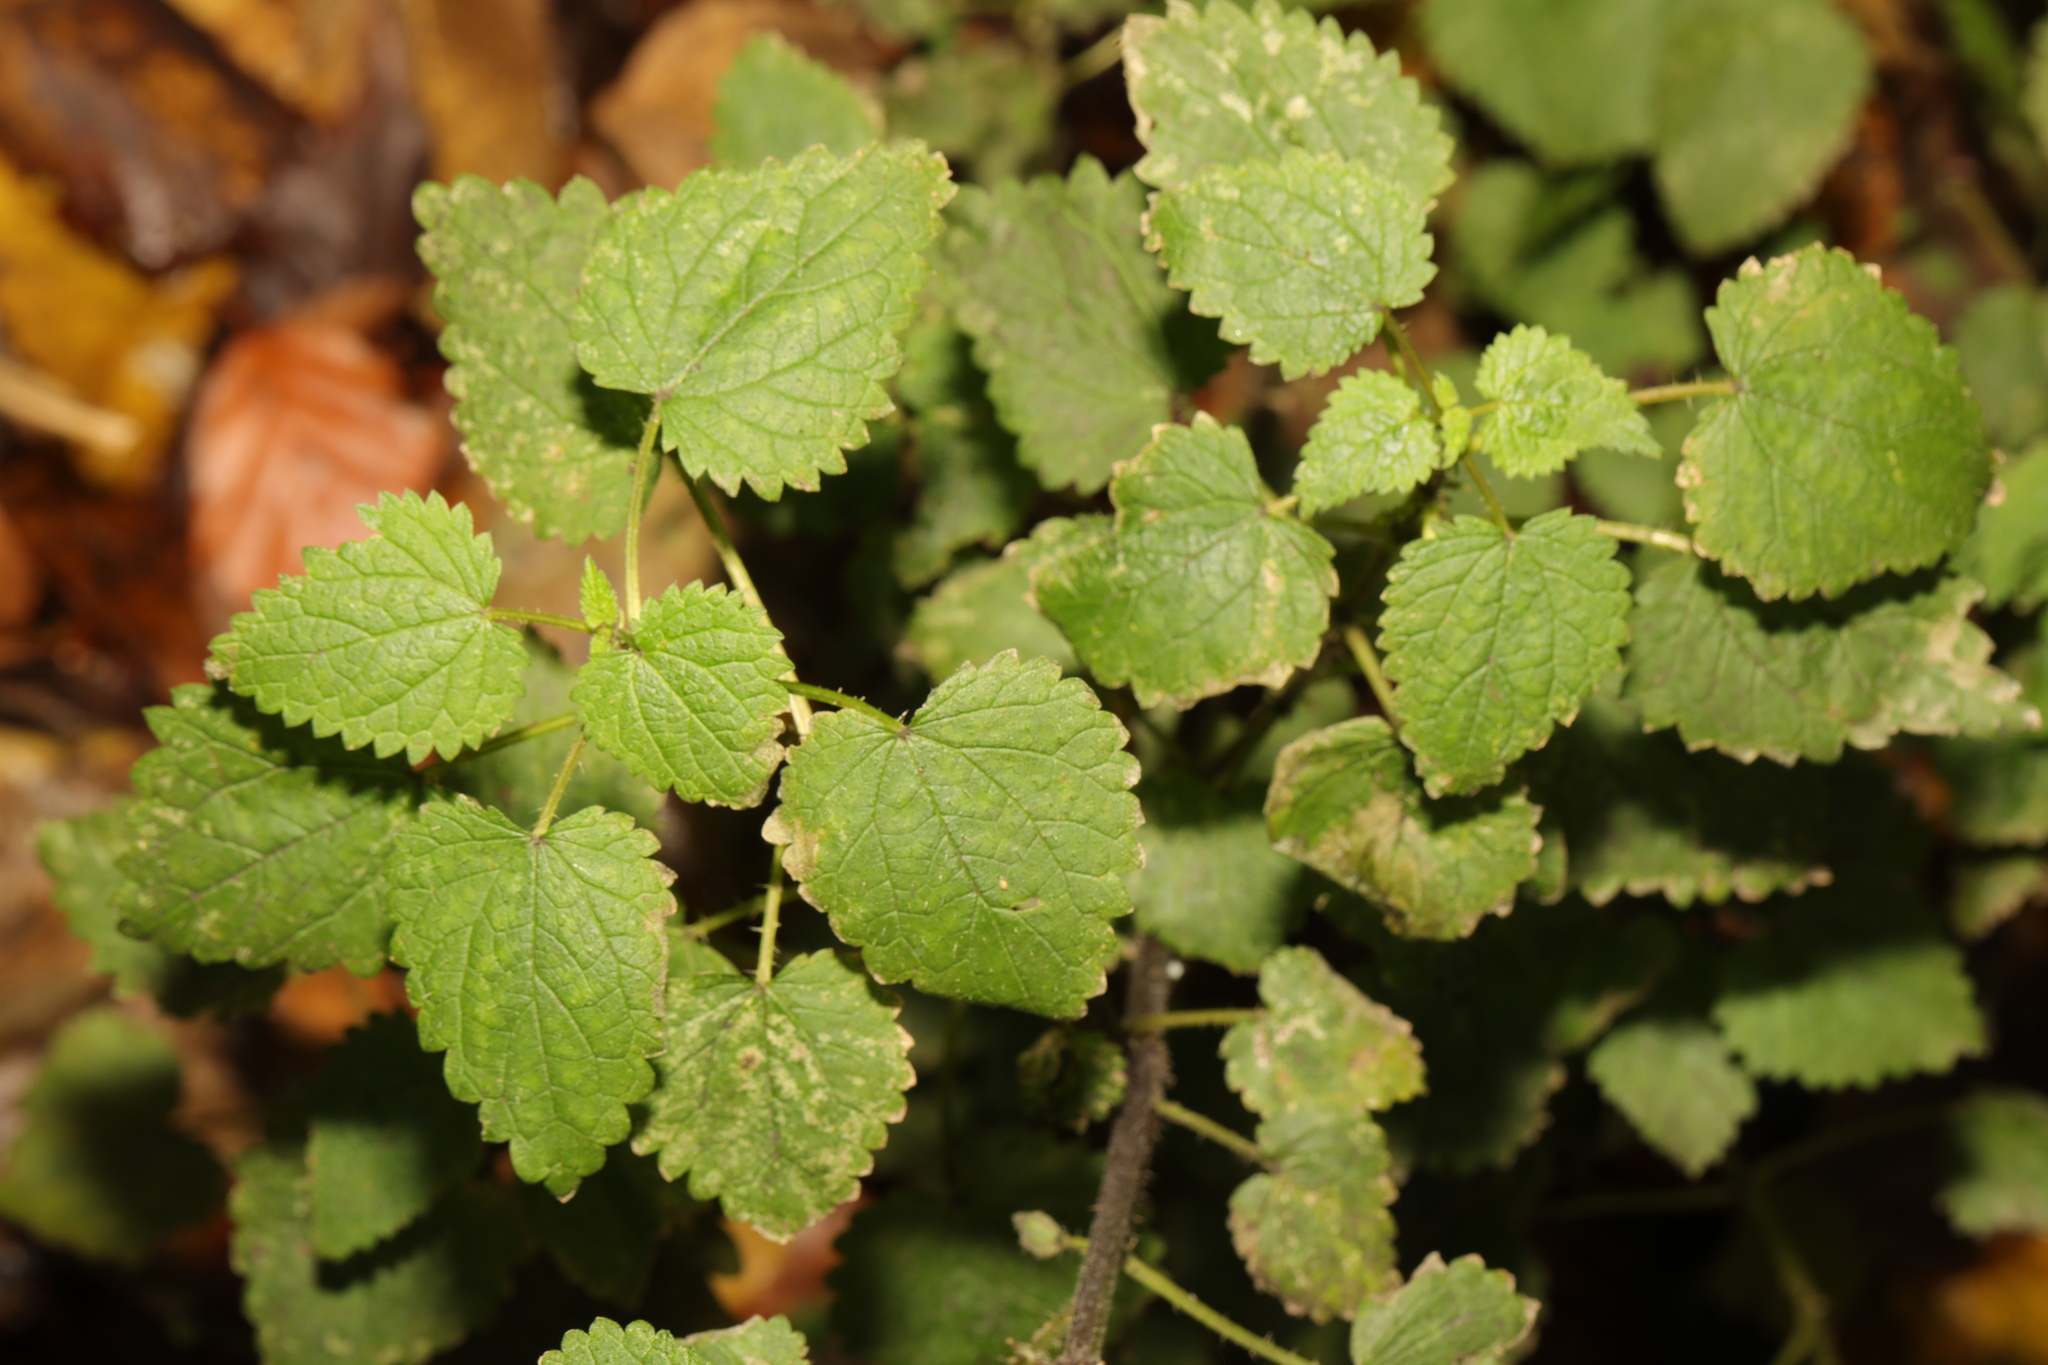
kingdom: Plantae
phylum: Tracheophyta
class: Magnoliopsida
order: Rosales
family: Urticaceae
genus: Urtica
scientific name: Urtica dioica
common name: Common nettle
